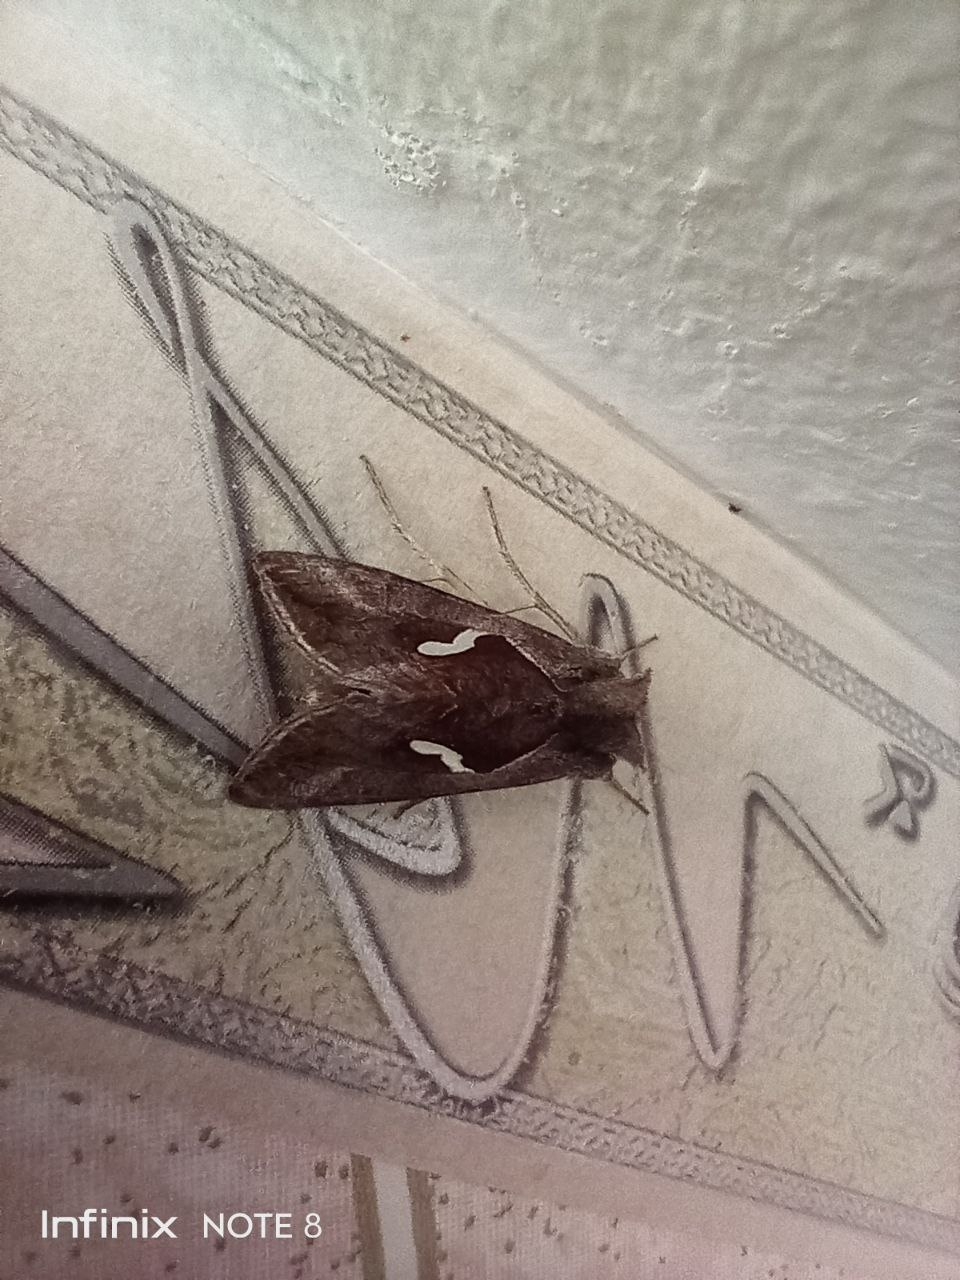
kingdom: Animalia
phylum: Arthropoda
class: Insecta
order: Lepidoptera
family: Noctuidae
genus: Macdunnoughia
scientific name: Macdunnoughia confusa
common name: Dewick's plusia
